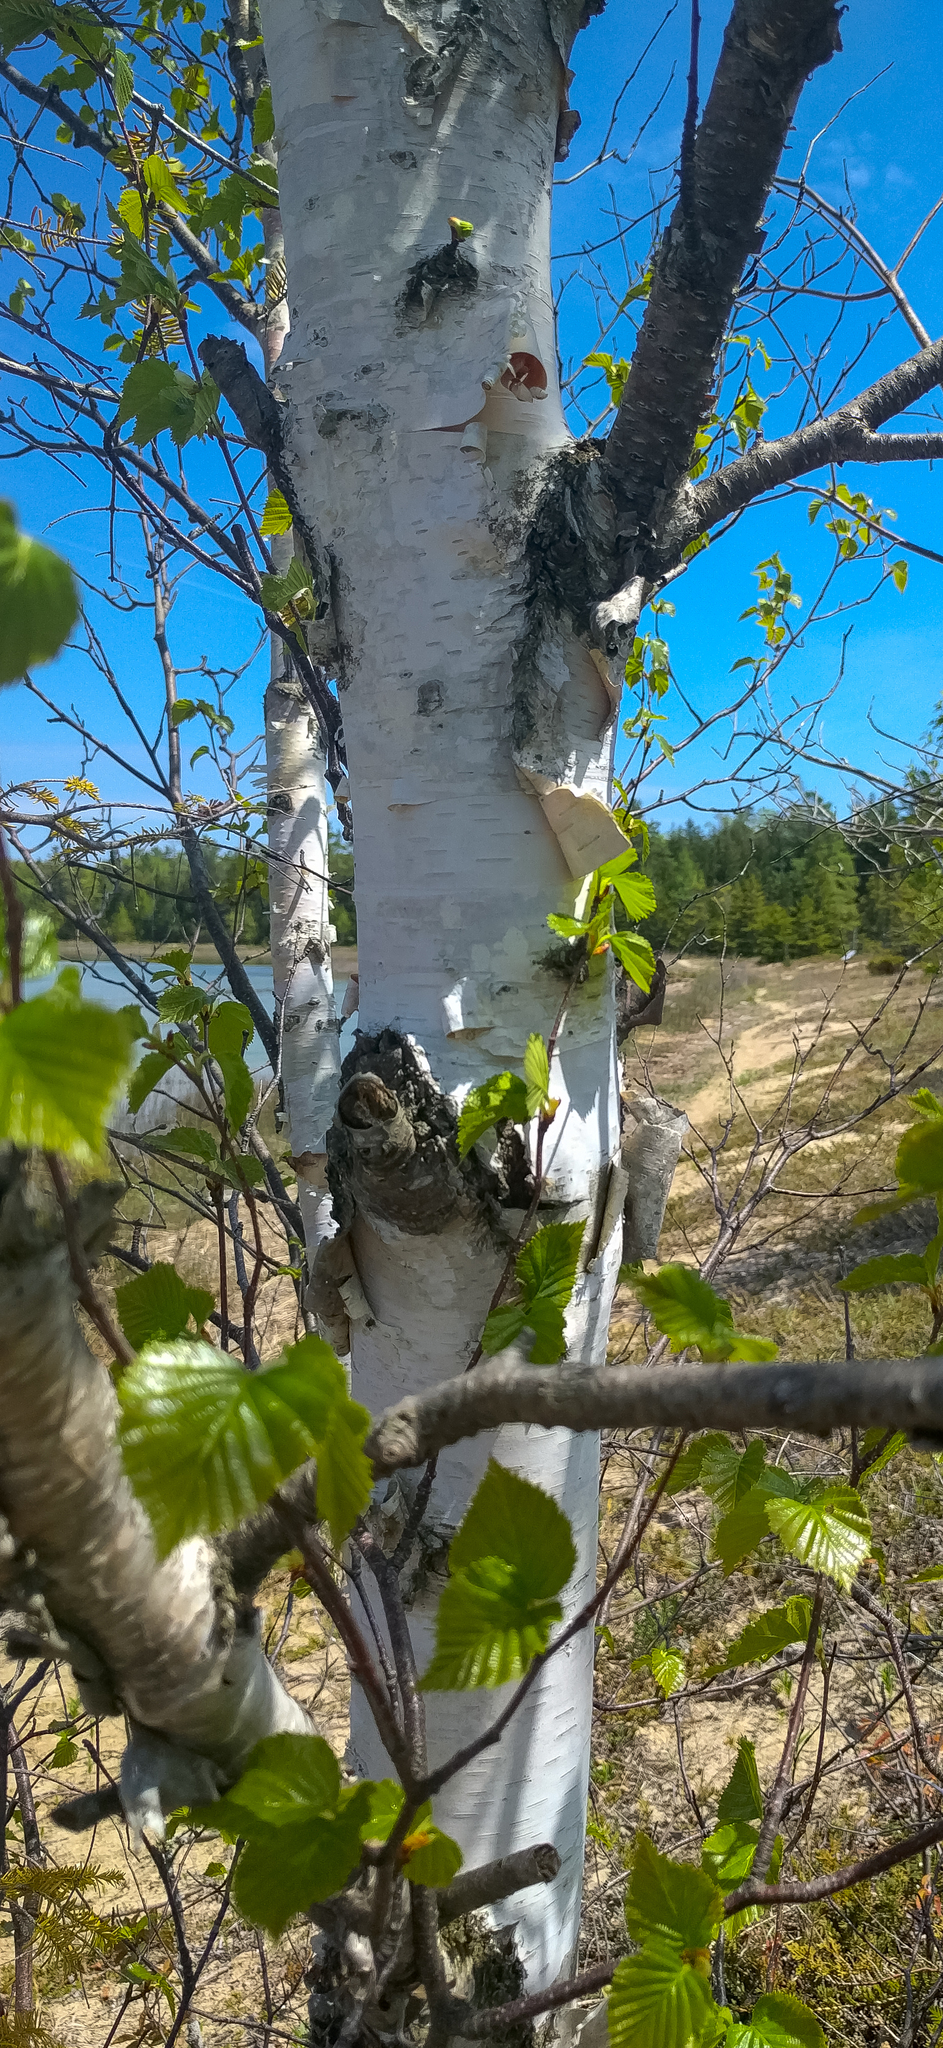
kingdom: Plantae
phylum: Tracheophyta
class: Magnoliopsida
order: Fagales
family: Betulaceae
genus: Betula
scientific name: Betula papyrifera
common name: Paper birch
